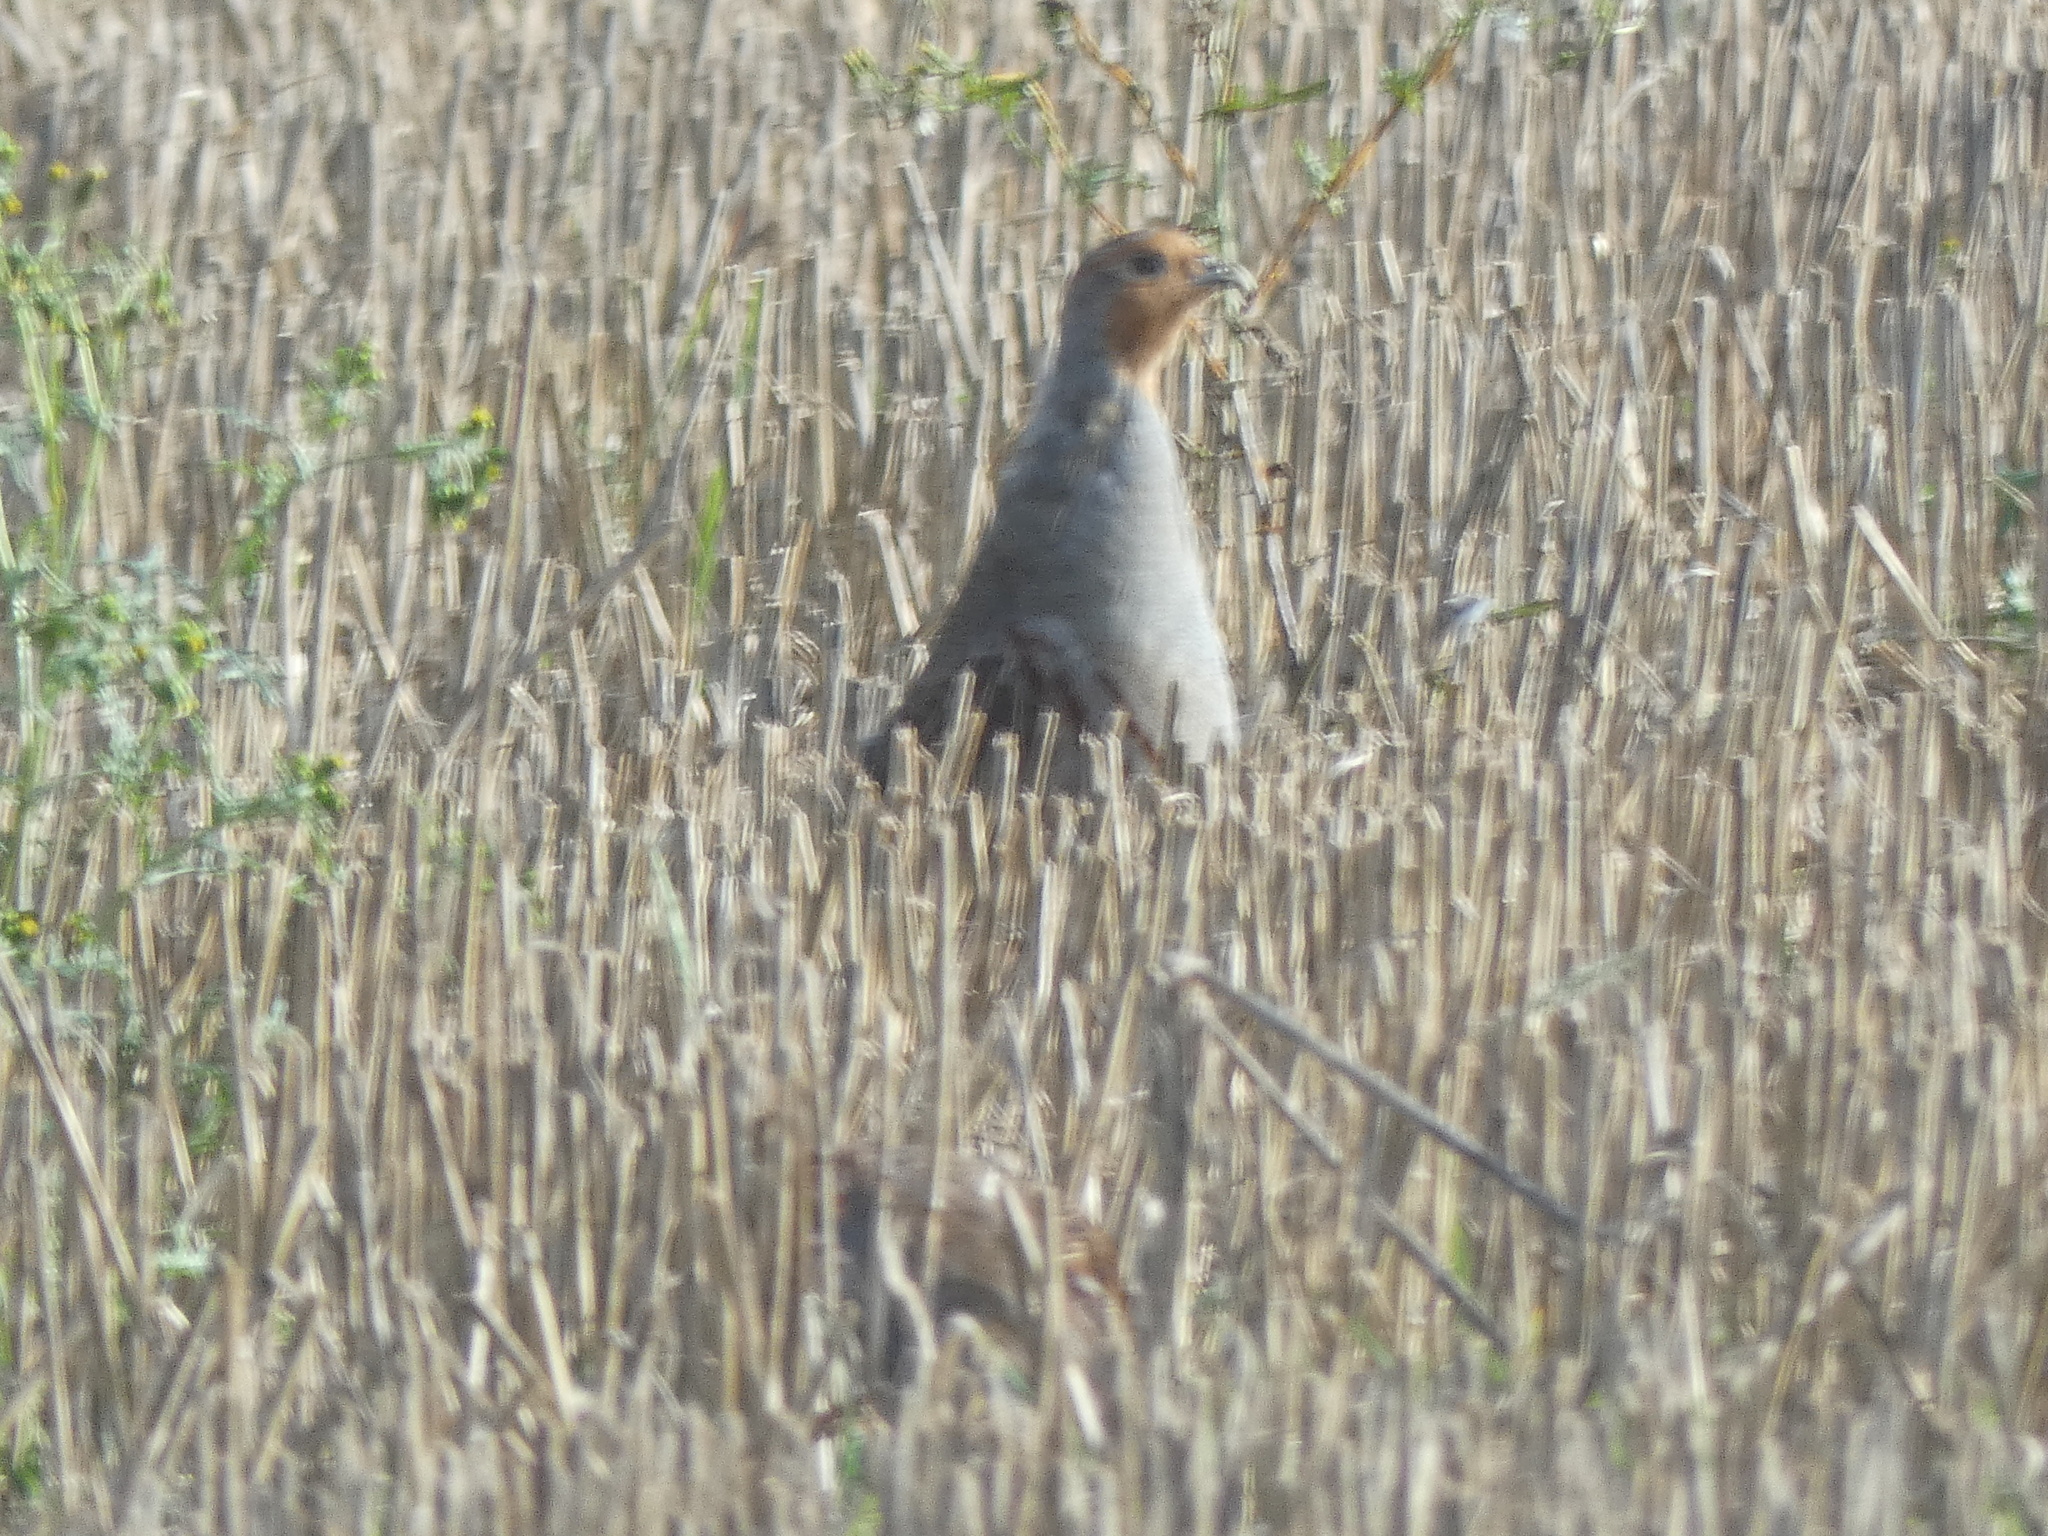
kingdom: Animalia
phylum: Chordata
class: Aves
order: Galliformes
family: Phasianidae
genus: Perdix
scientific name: Perdix perdix
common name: Grey partridge
